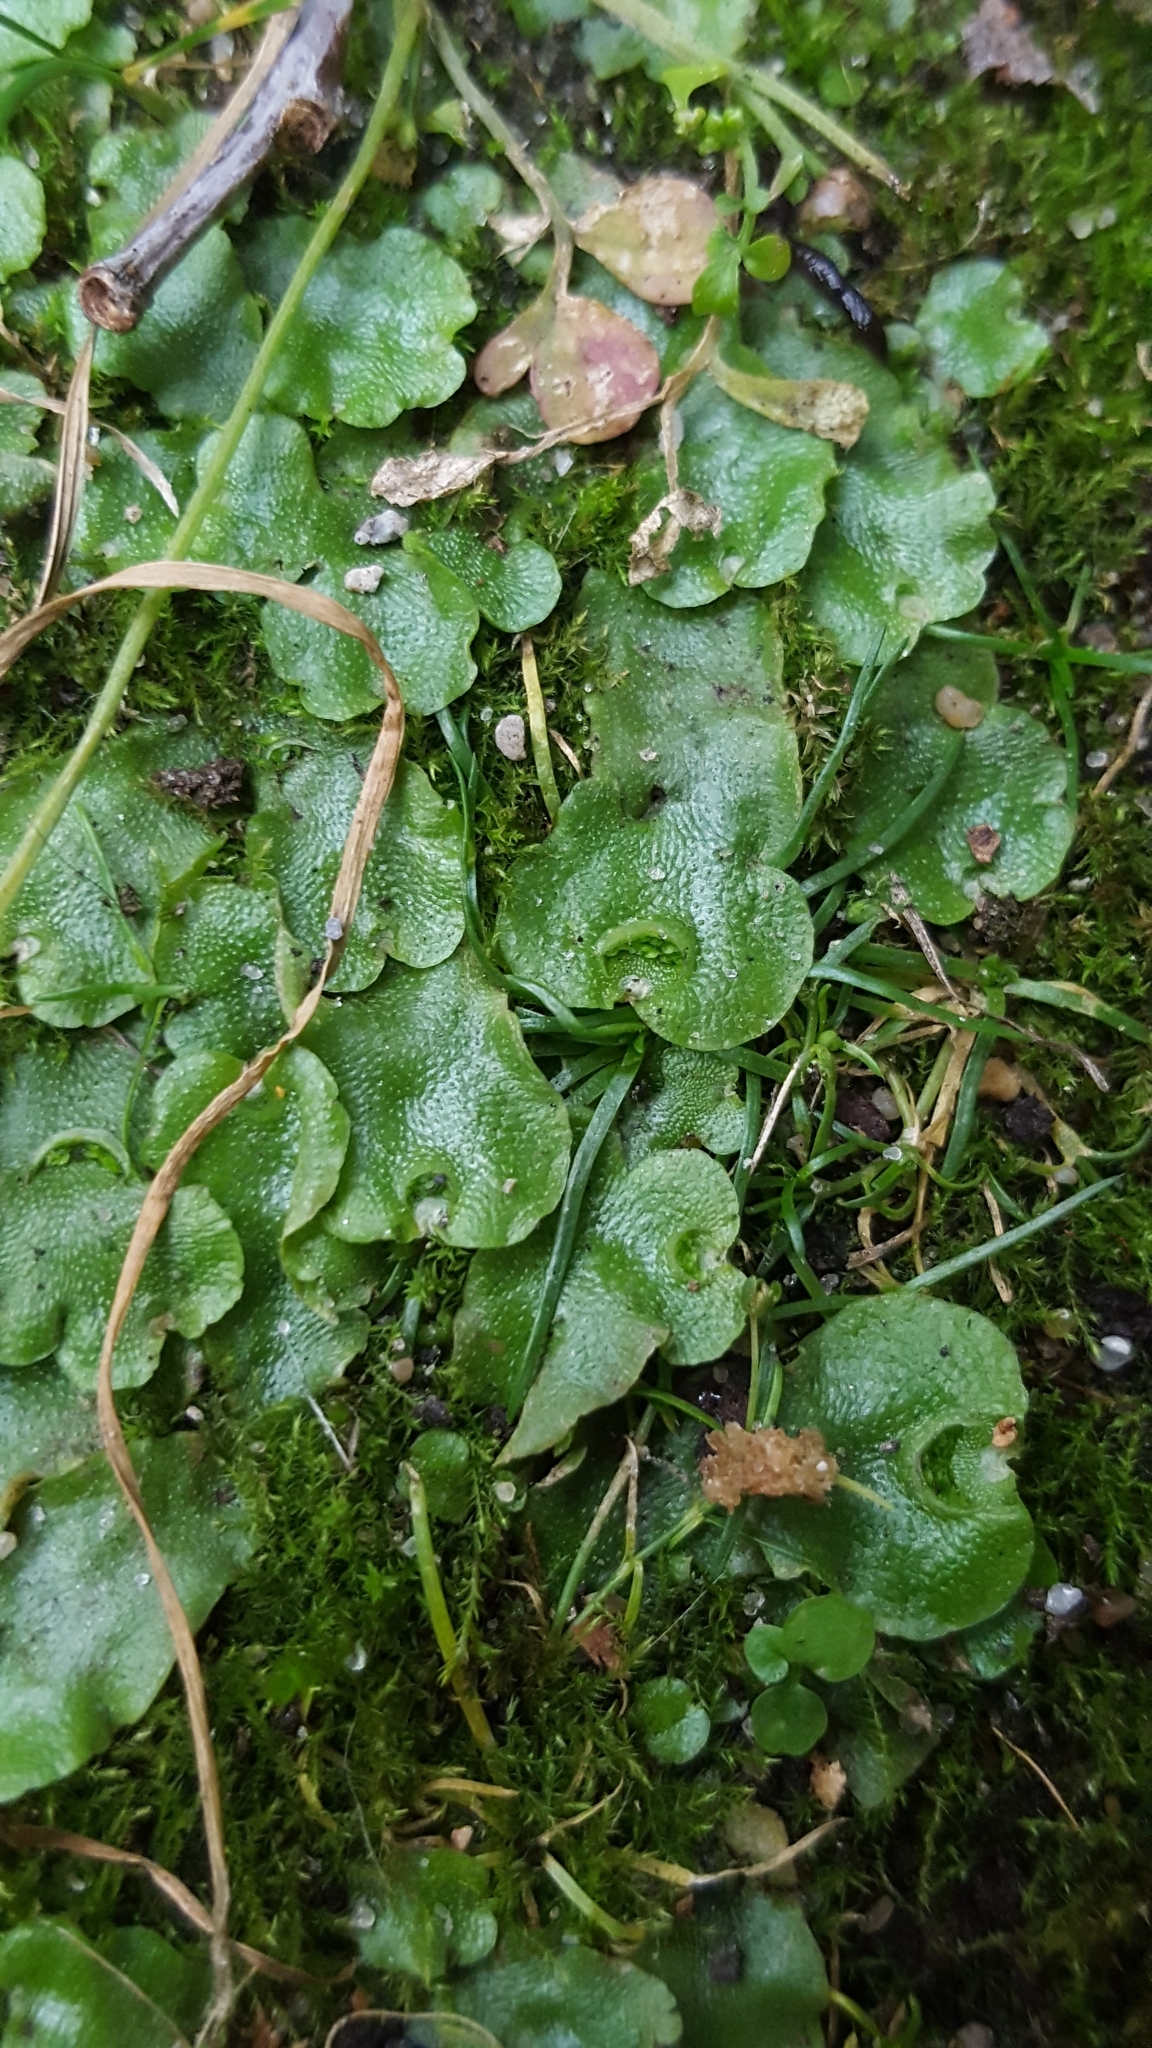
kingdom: Plantae
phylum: Marchantiophyta
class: Marchantiopsida
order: Lunulariales
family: Lunulariaceae
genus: Lunularia
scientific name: Lunularia cruciata
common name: Crescent-cup liverwort
